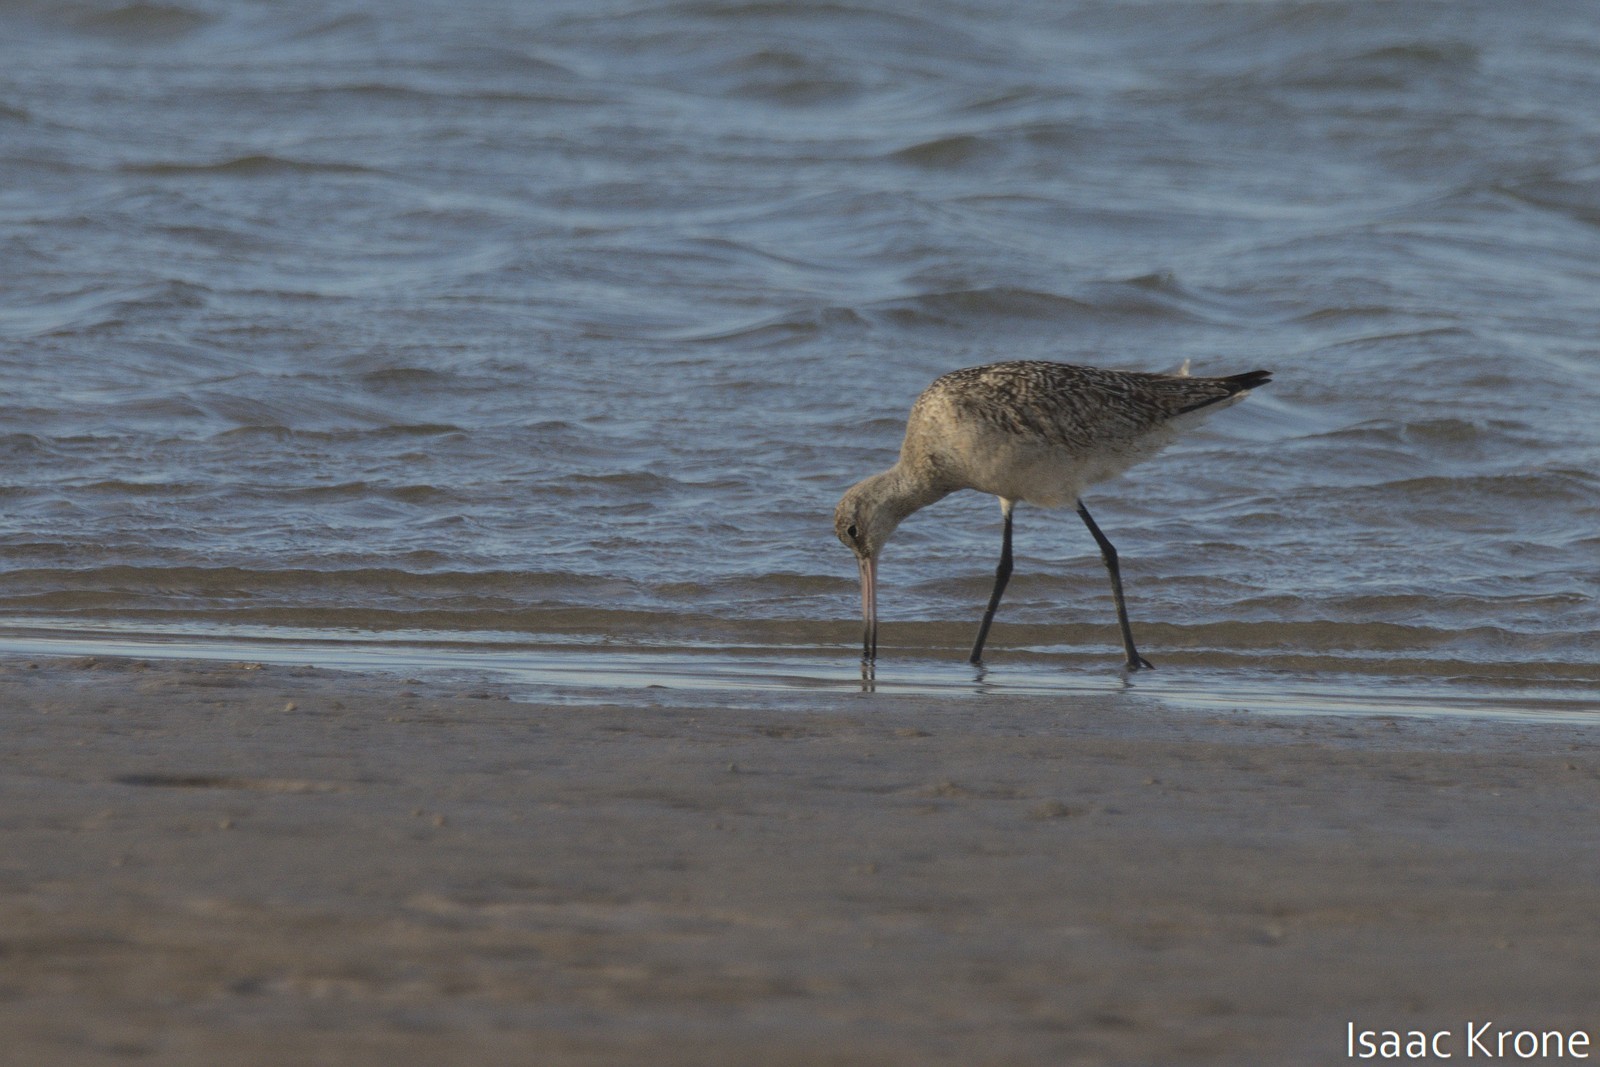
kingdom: Animalia
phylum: Chordata
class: Aves
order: Charadriiformes
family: Scolopacidae
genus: Limosa
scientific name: Limosa fedoa
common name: Marbled godwit
